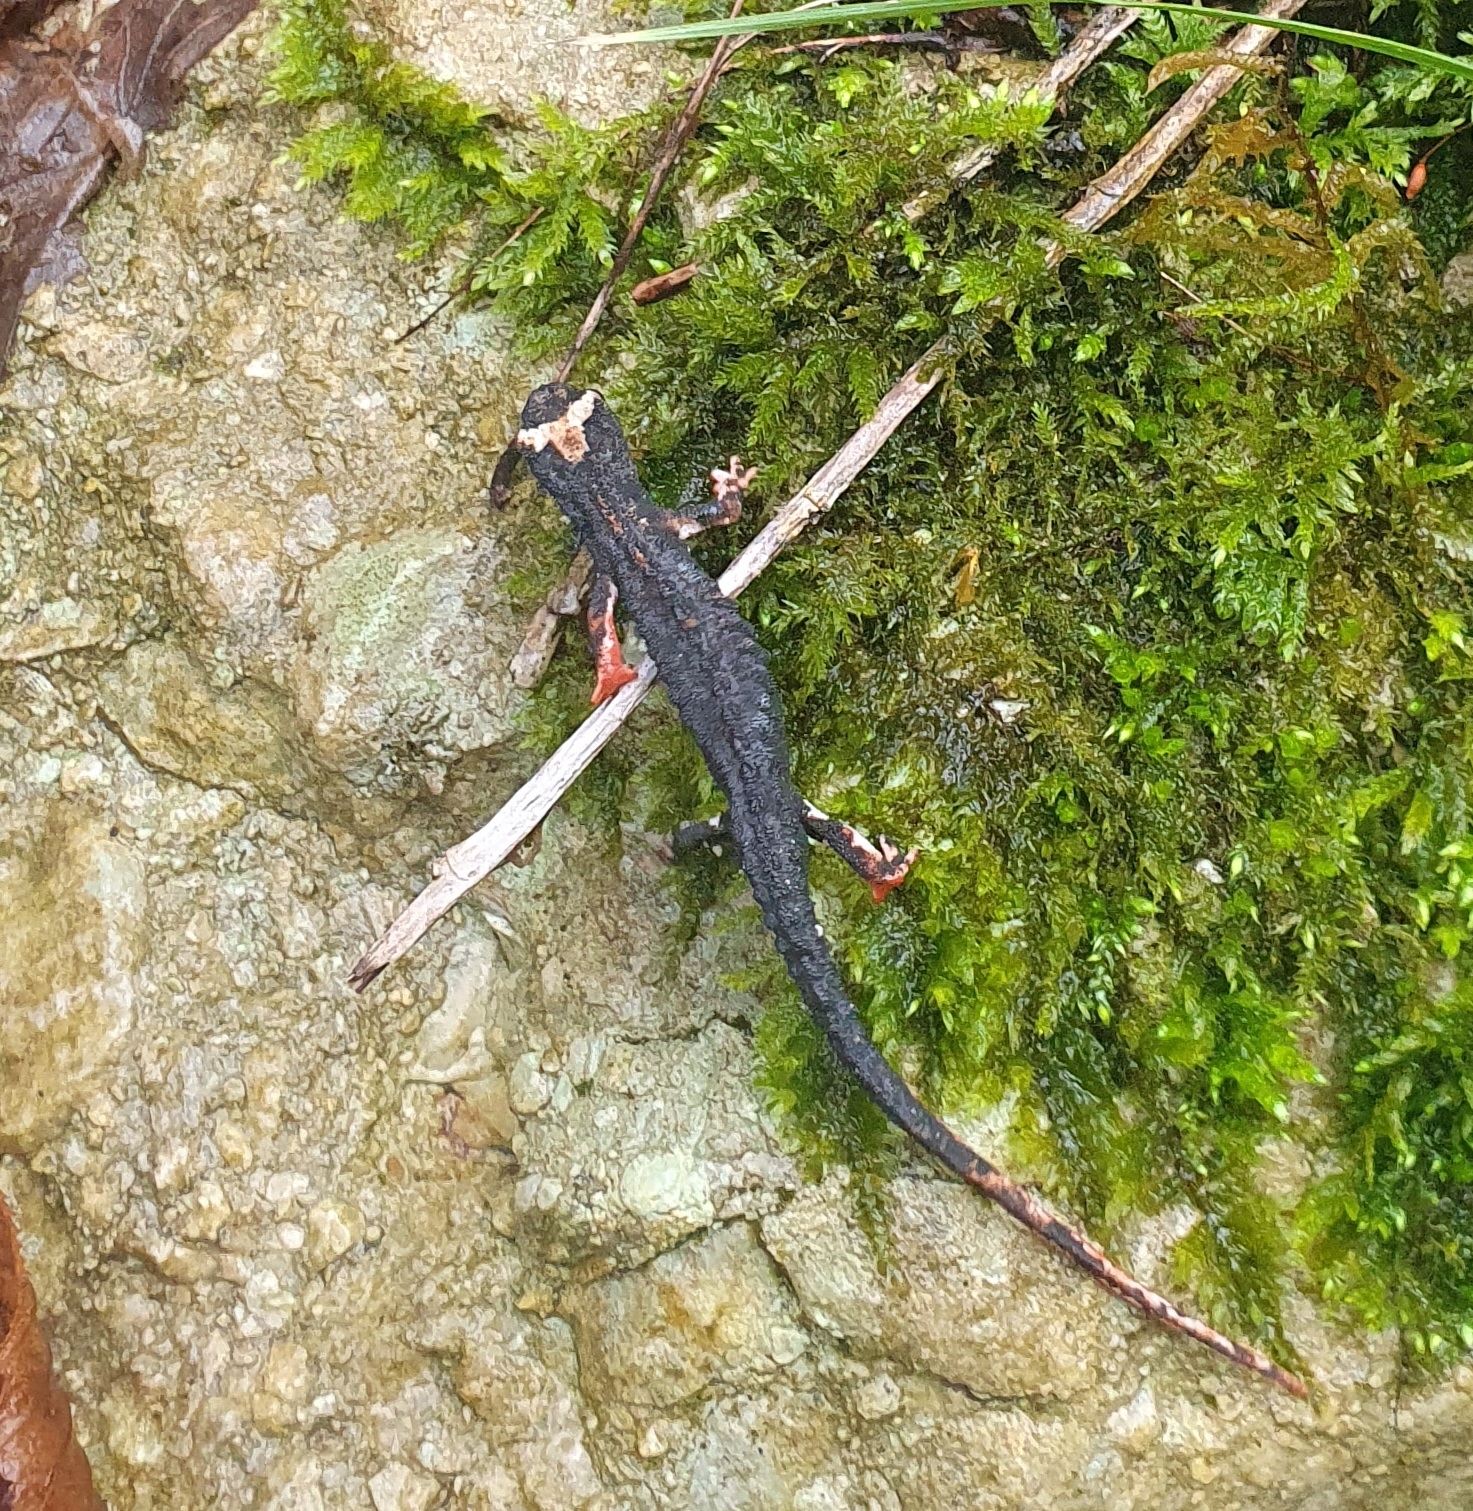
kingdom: Animalia
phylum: Chordata
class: Amphibia
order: Caudata
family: Salamandridae
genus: Salamandrina
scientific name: Salamandrina terdigitata
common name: Southern spectacled salamander
